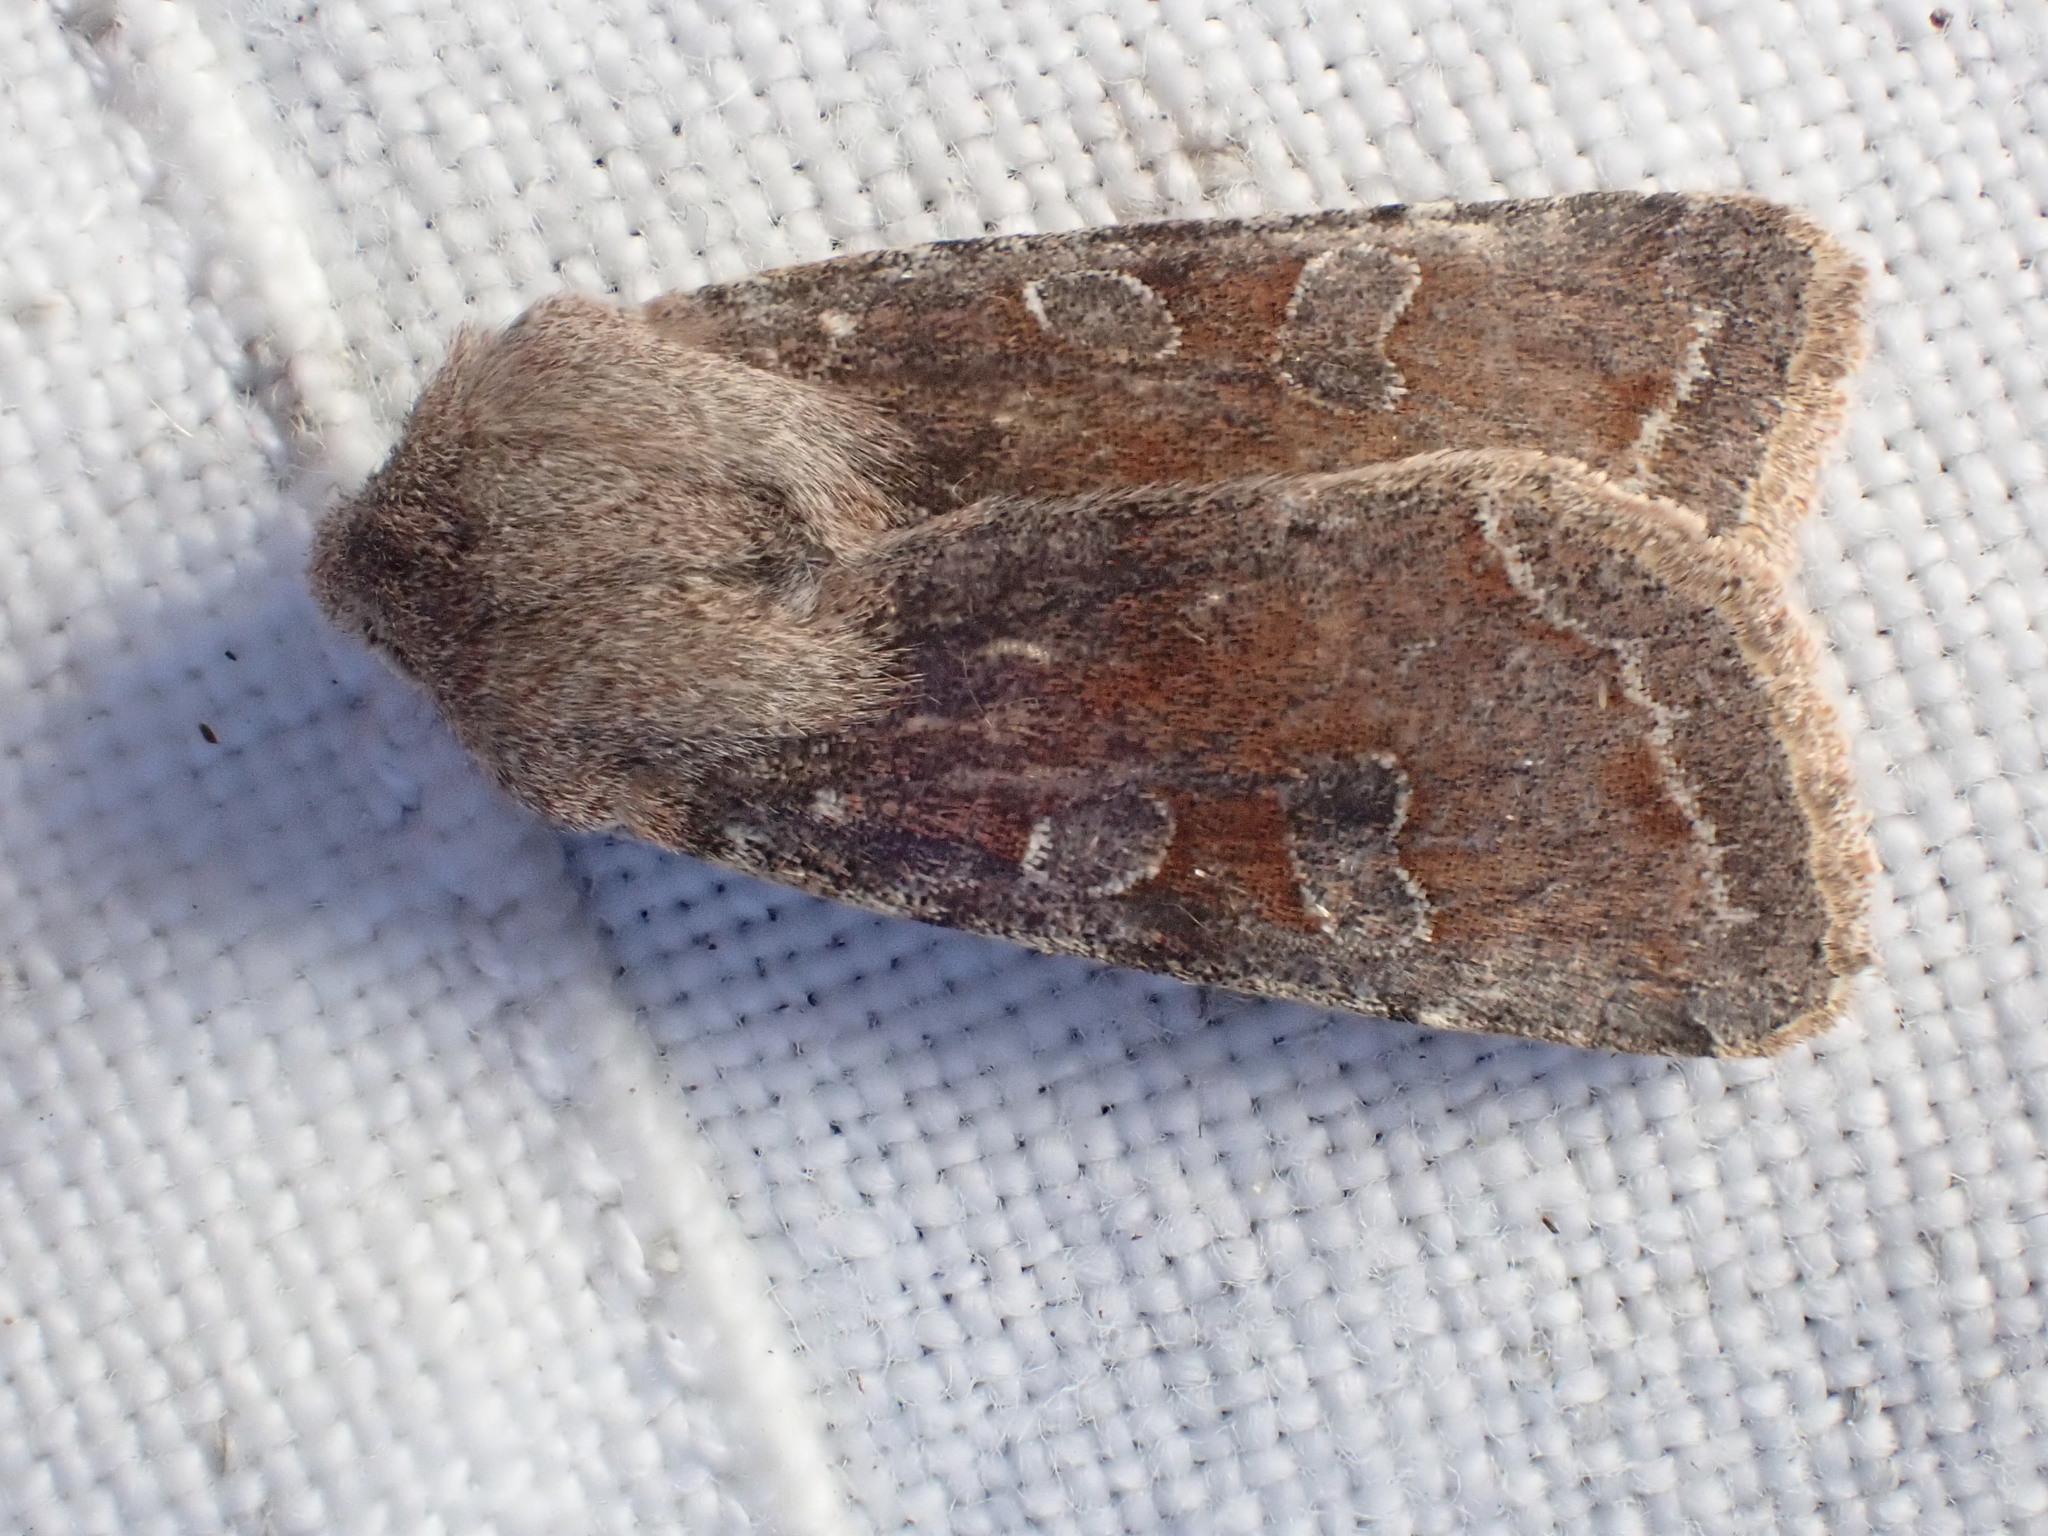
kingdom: Animalia
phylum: Arthropoda
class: Insecta
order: Lepidoptera
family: Noctuidae
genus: Orthosia
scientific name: Orthosia incerta
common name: Clouded drab
